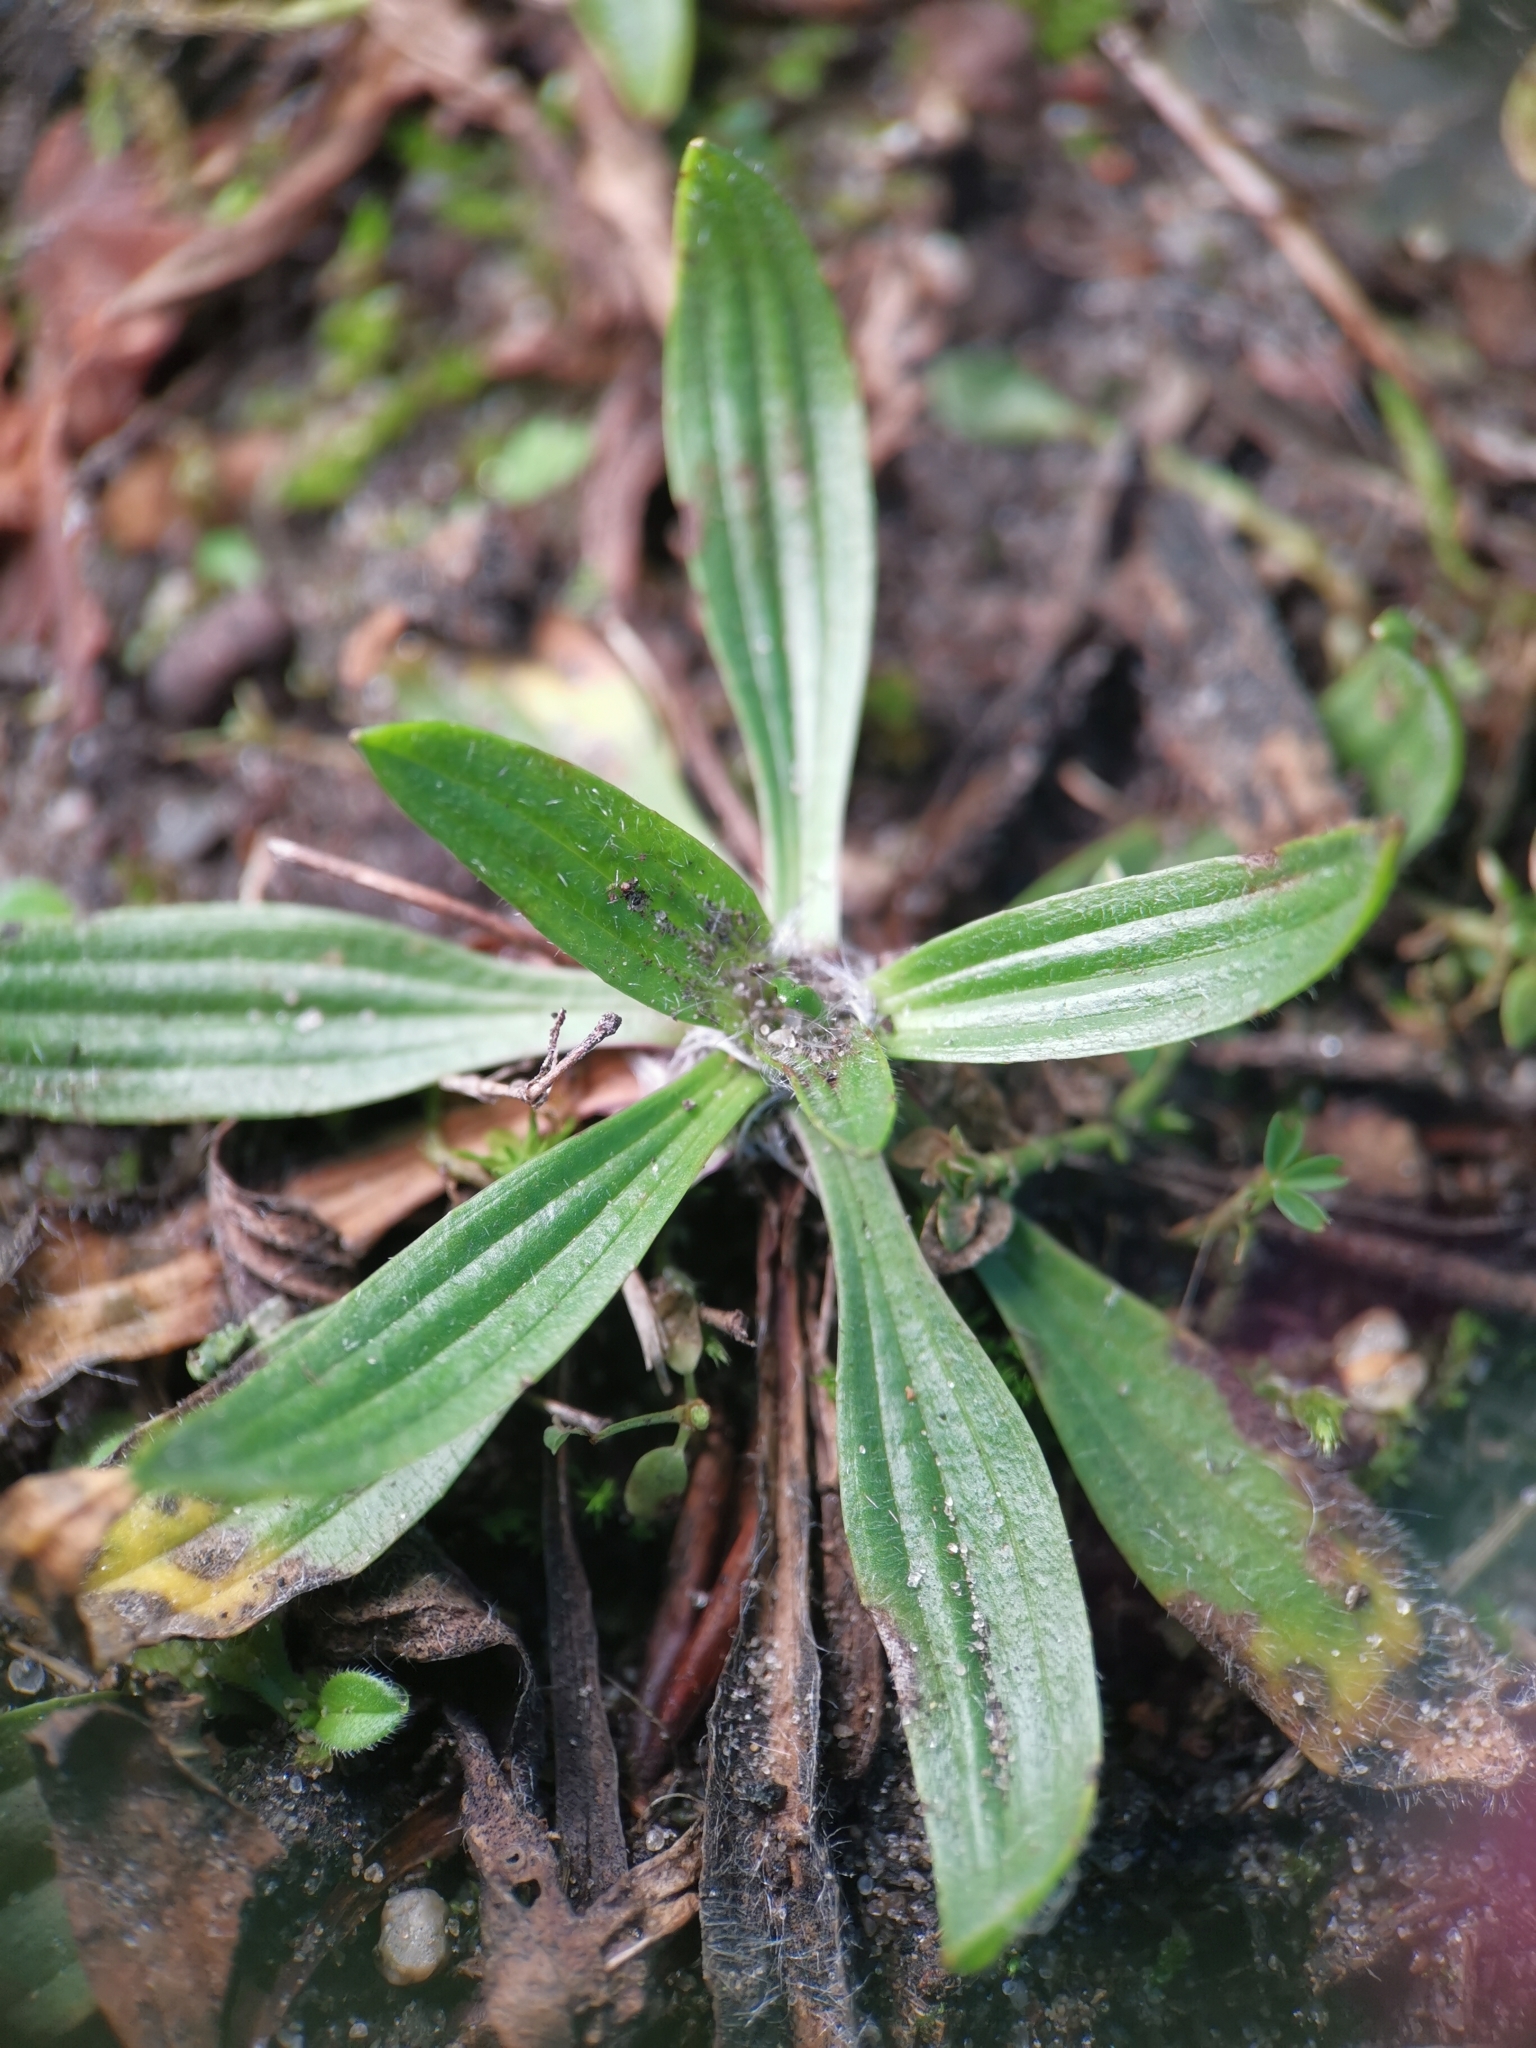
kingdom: Plantae
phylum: Tracheophyta
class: Magnoliopsida
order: Lamiales
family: Plantaginaceae
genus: Plantago
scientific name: Plantago lanceolata
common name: Ribwort plantain
